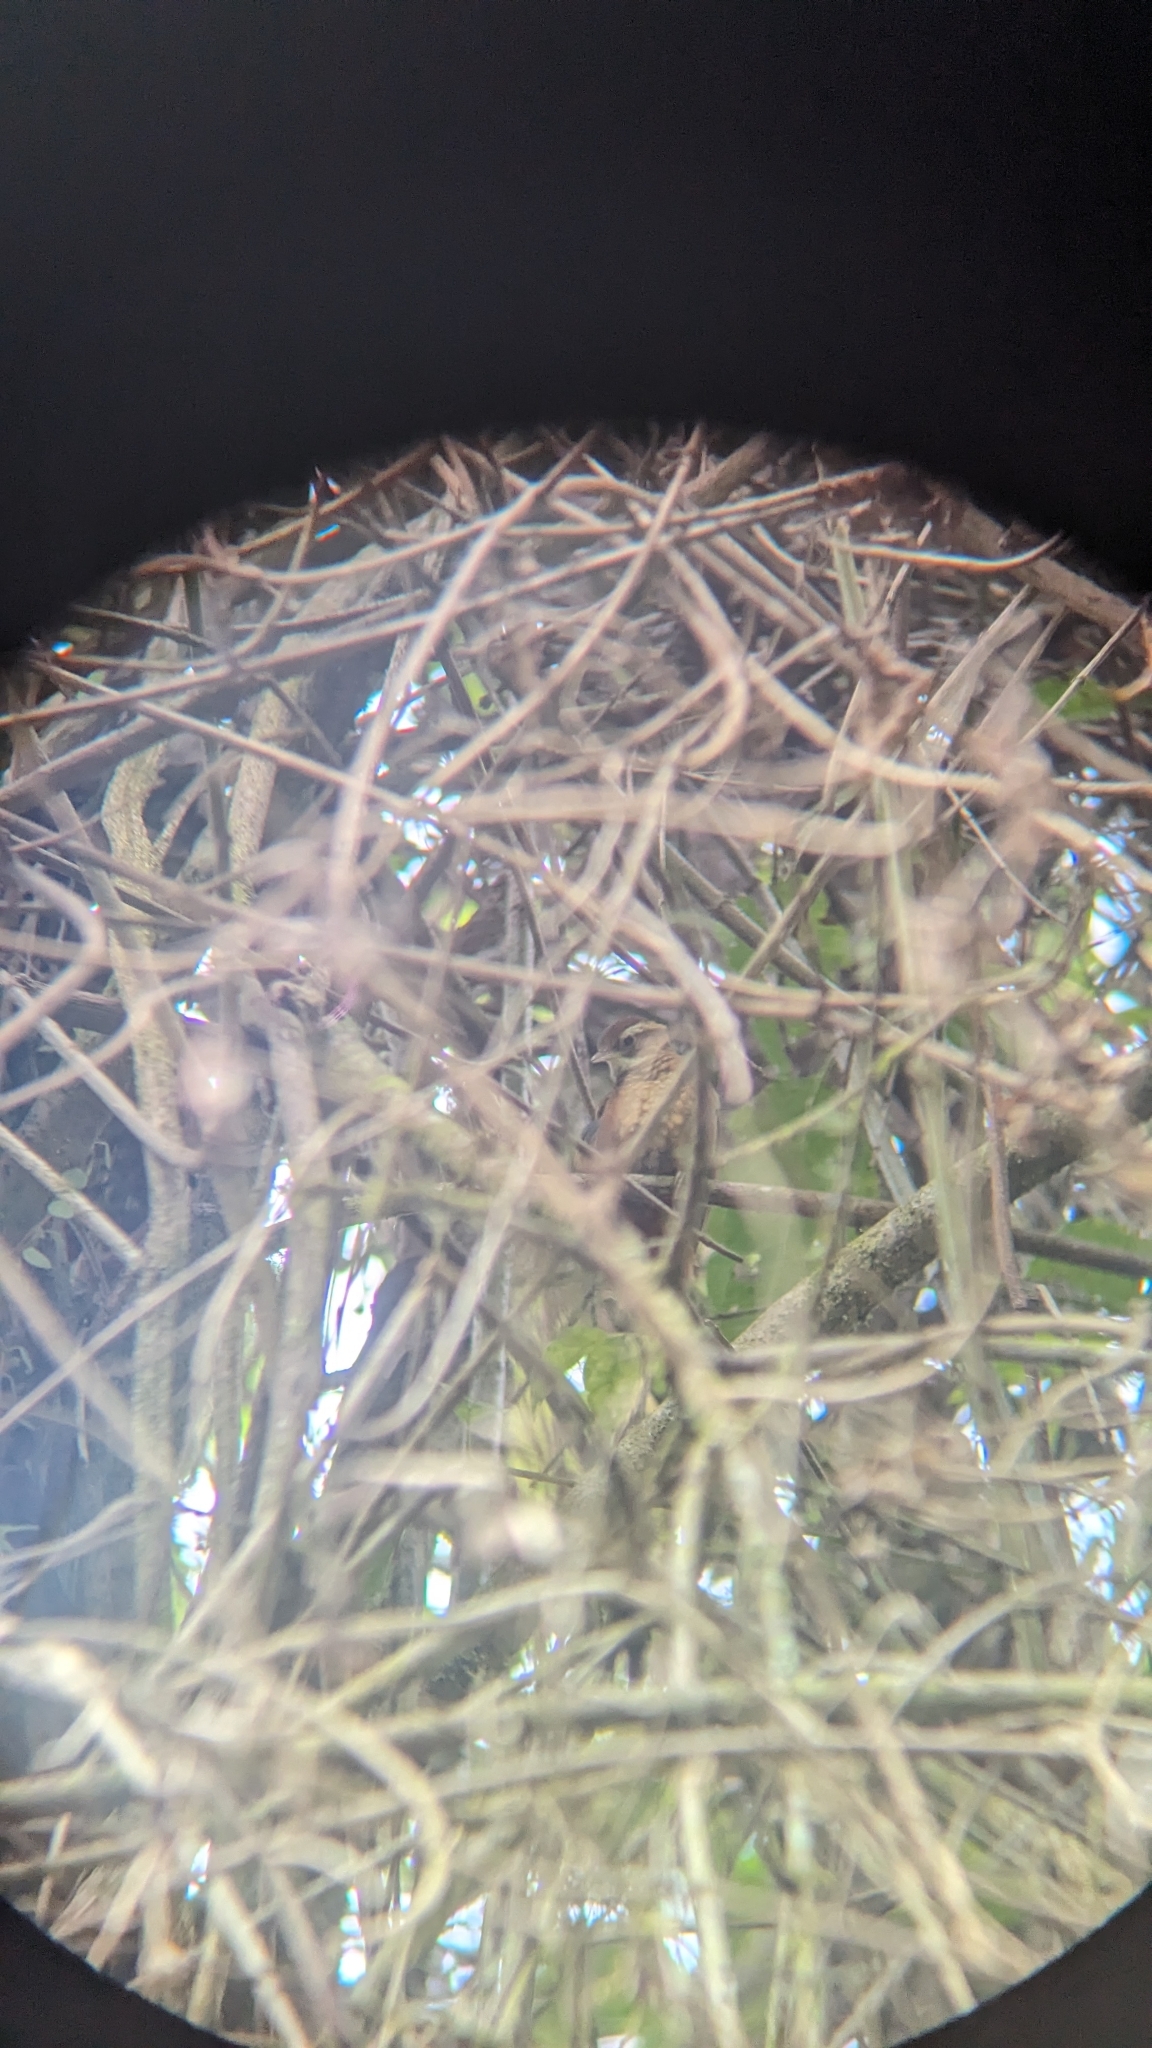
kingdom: Animalia
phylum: Chordata
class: Aves
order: Passeriformes
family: Furnariidae
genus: Margarornis
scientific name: Margarornis rubiginosus
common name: Ruddy treerunner
